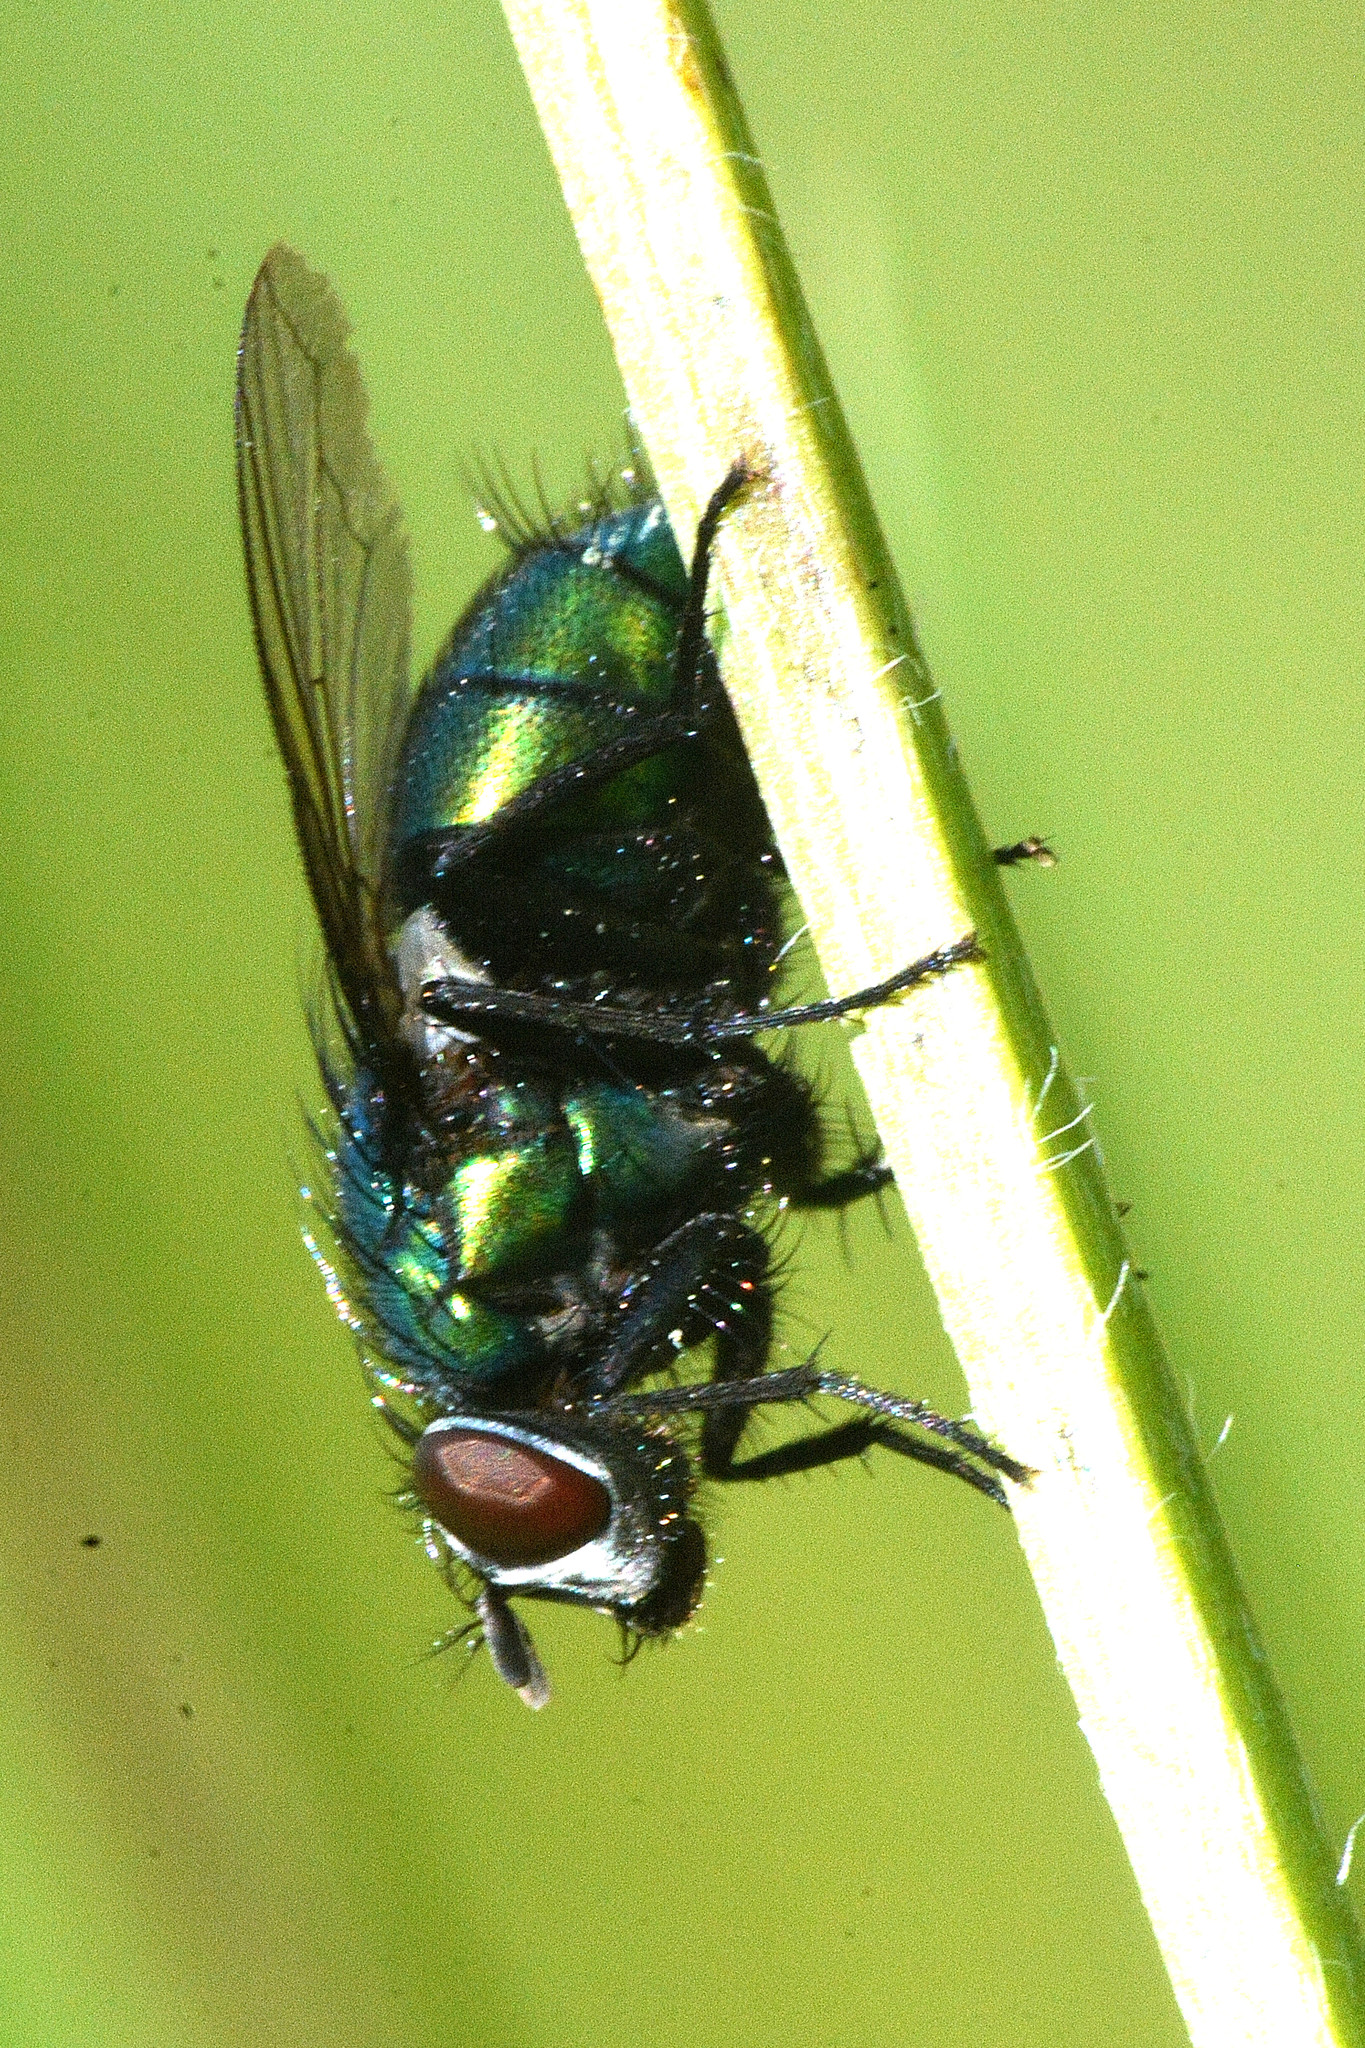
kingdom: Animalia
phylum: Arthropoda
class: Insecta
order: Diptera
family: Calliphoridae
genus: Lucilia
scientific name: Lucilia silvarum
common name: Marsh greenbottle
